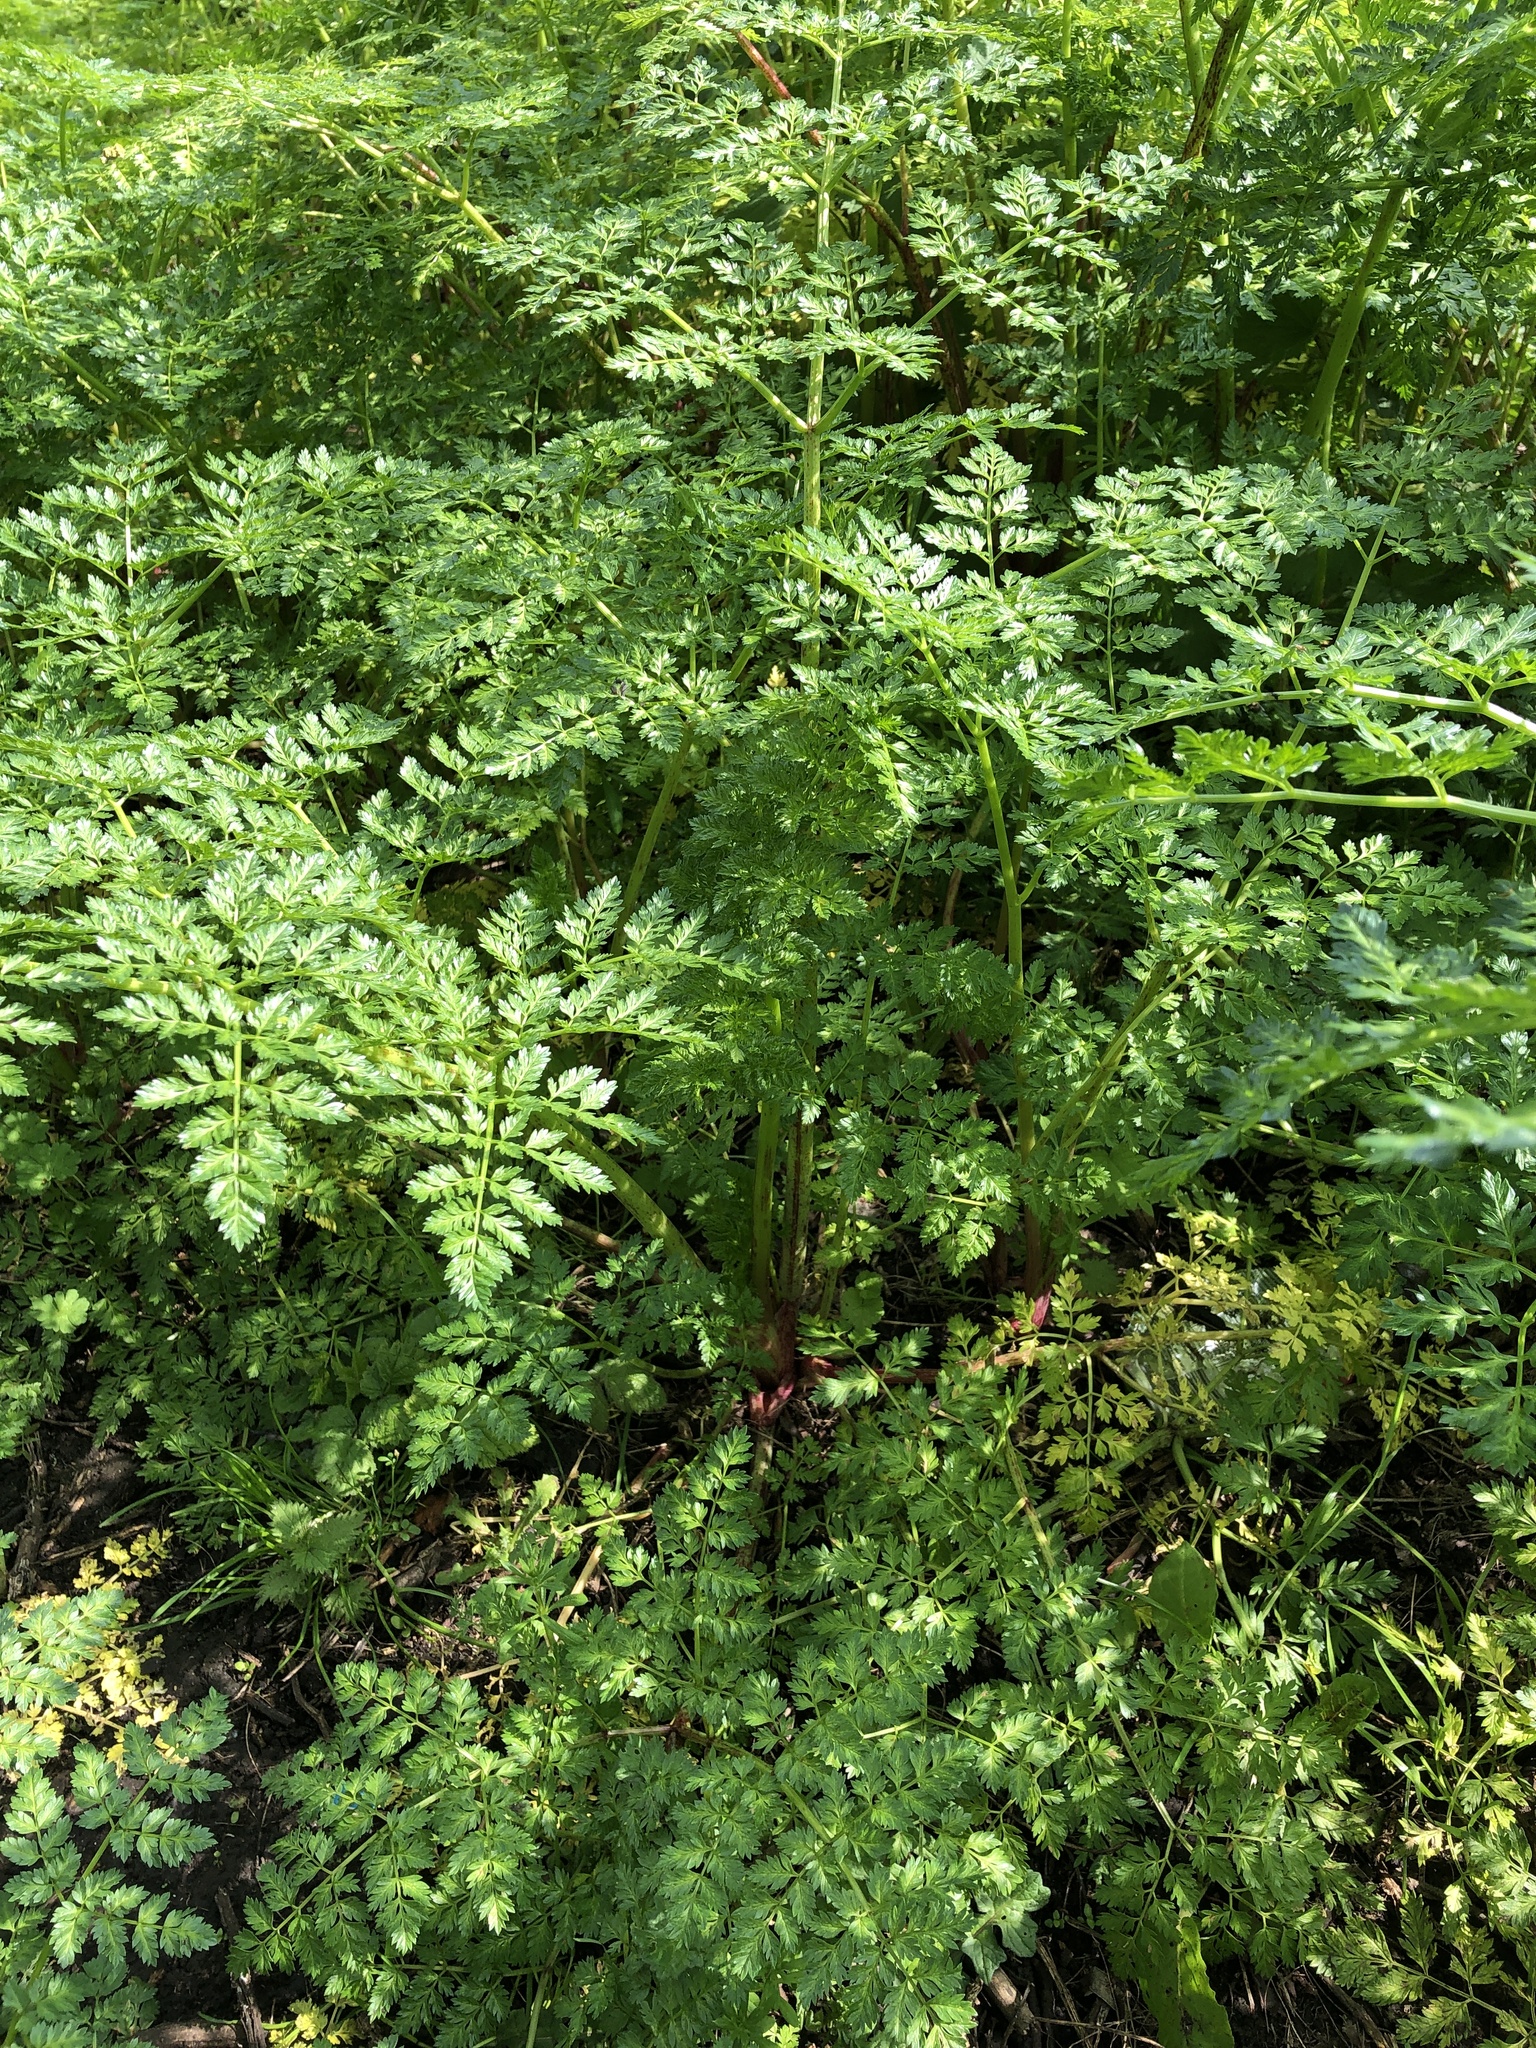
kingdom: Plantae
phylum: Tracheophyta
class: Magnoliopsida
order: Apiales
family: Apiaceae
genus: Conium
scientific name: Conium maculatum
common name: Hemlock
